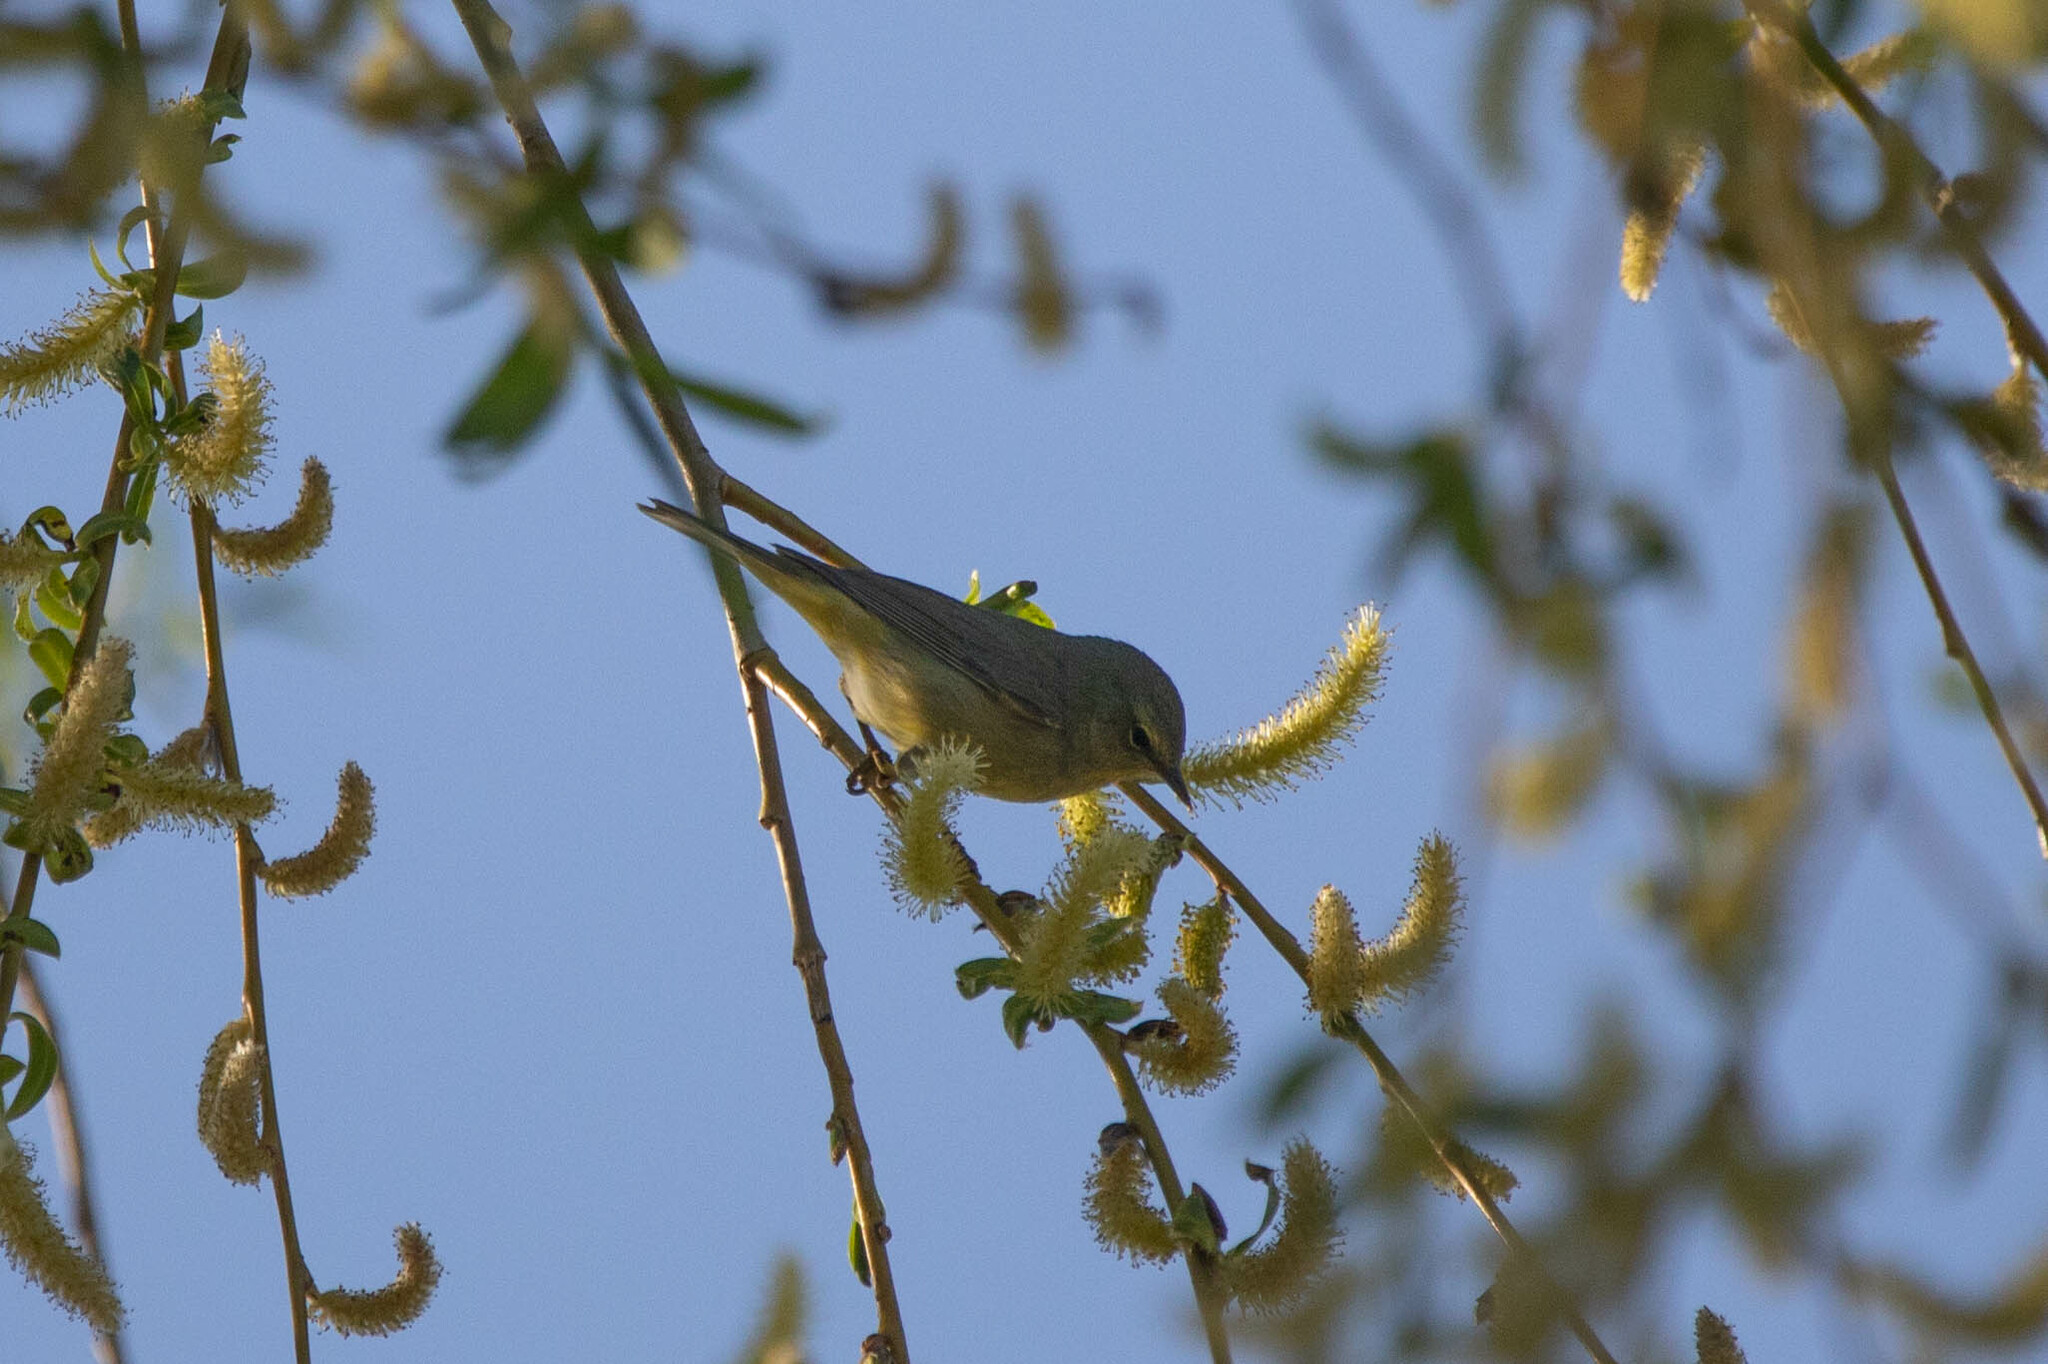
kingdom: Animalia
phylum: Chordata
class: Aves
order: Passeriformes
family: Parulidae
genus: Leiothlypis
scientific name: Leiothlypis celata
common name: Orange-crowned warbler
